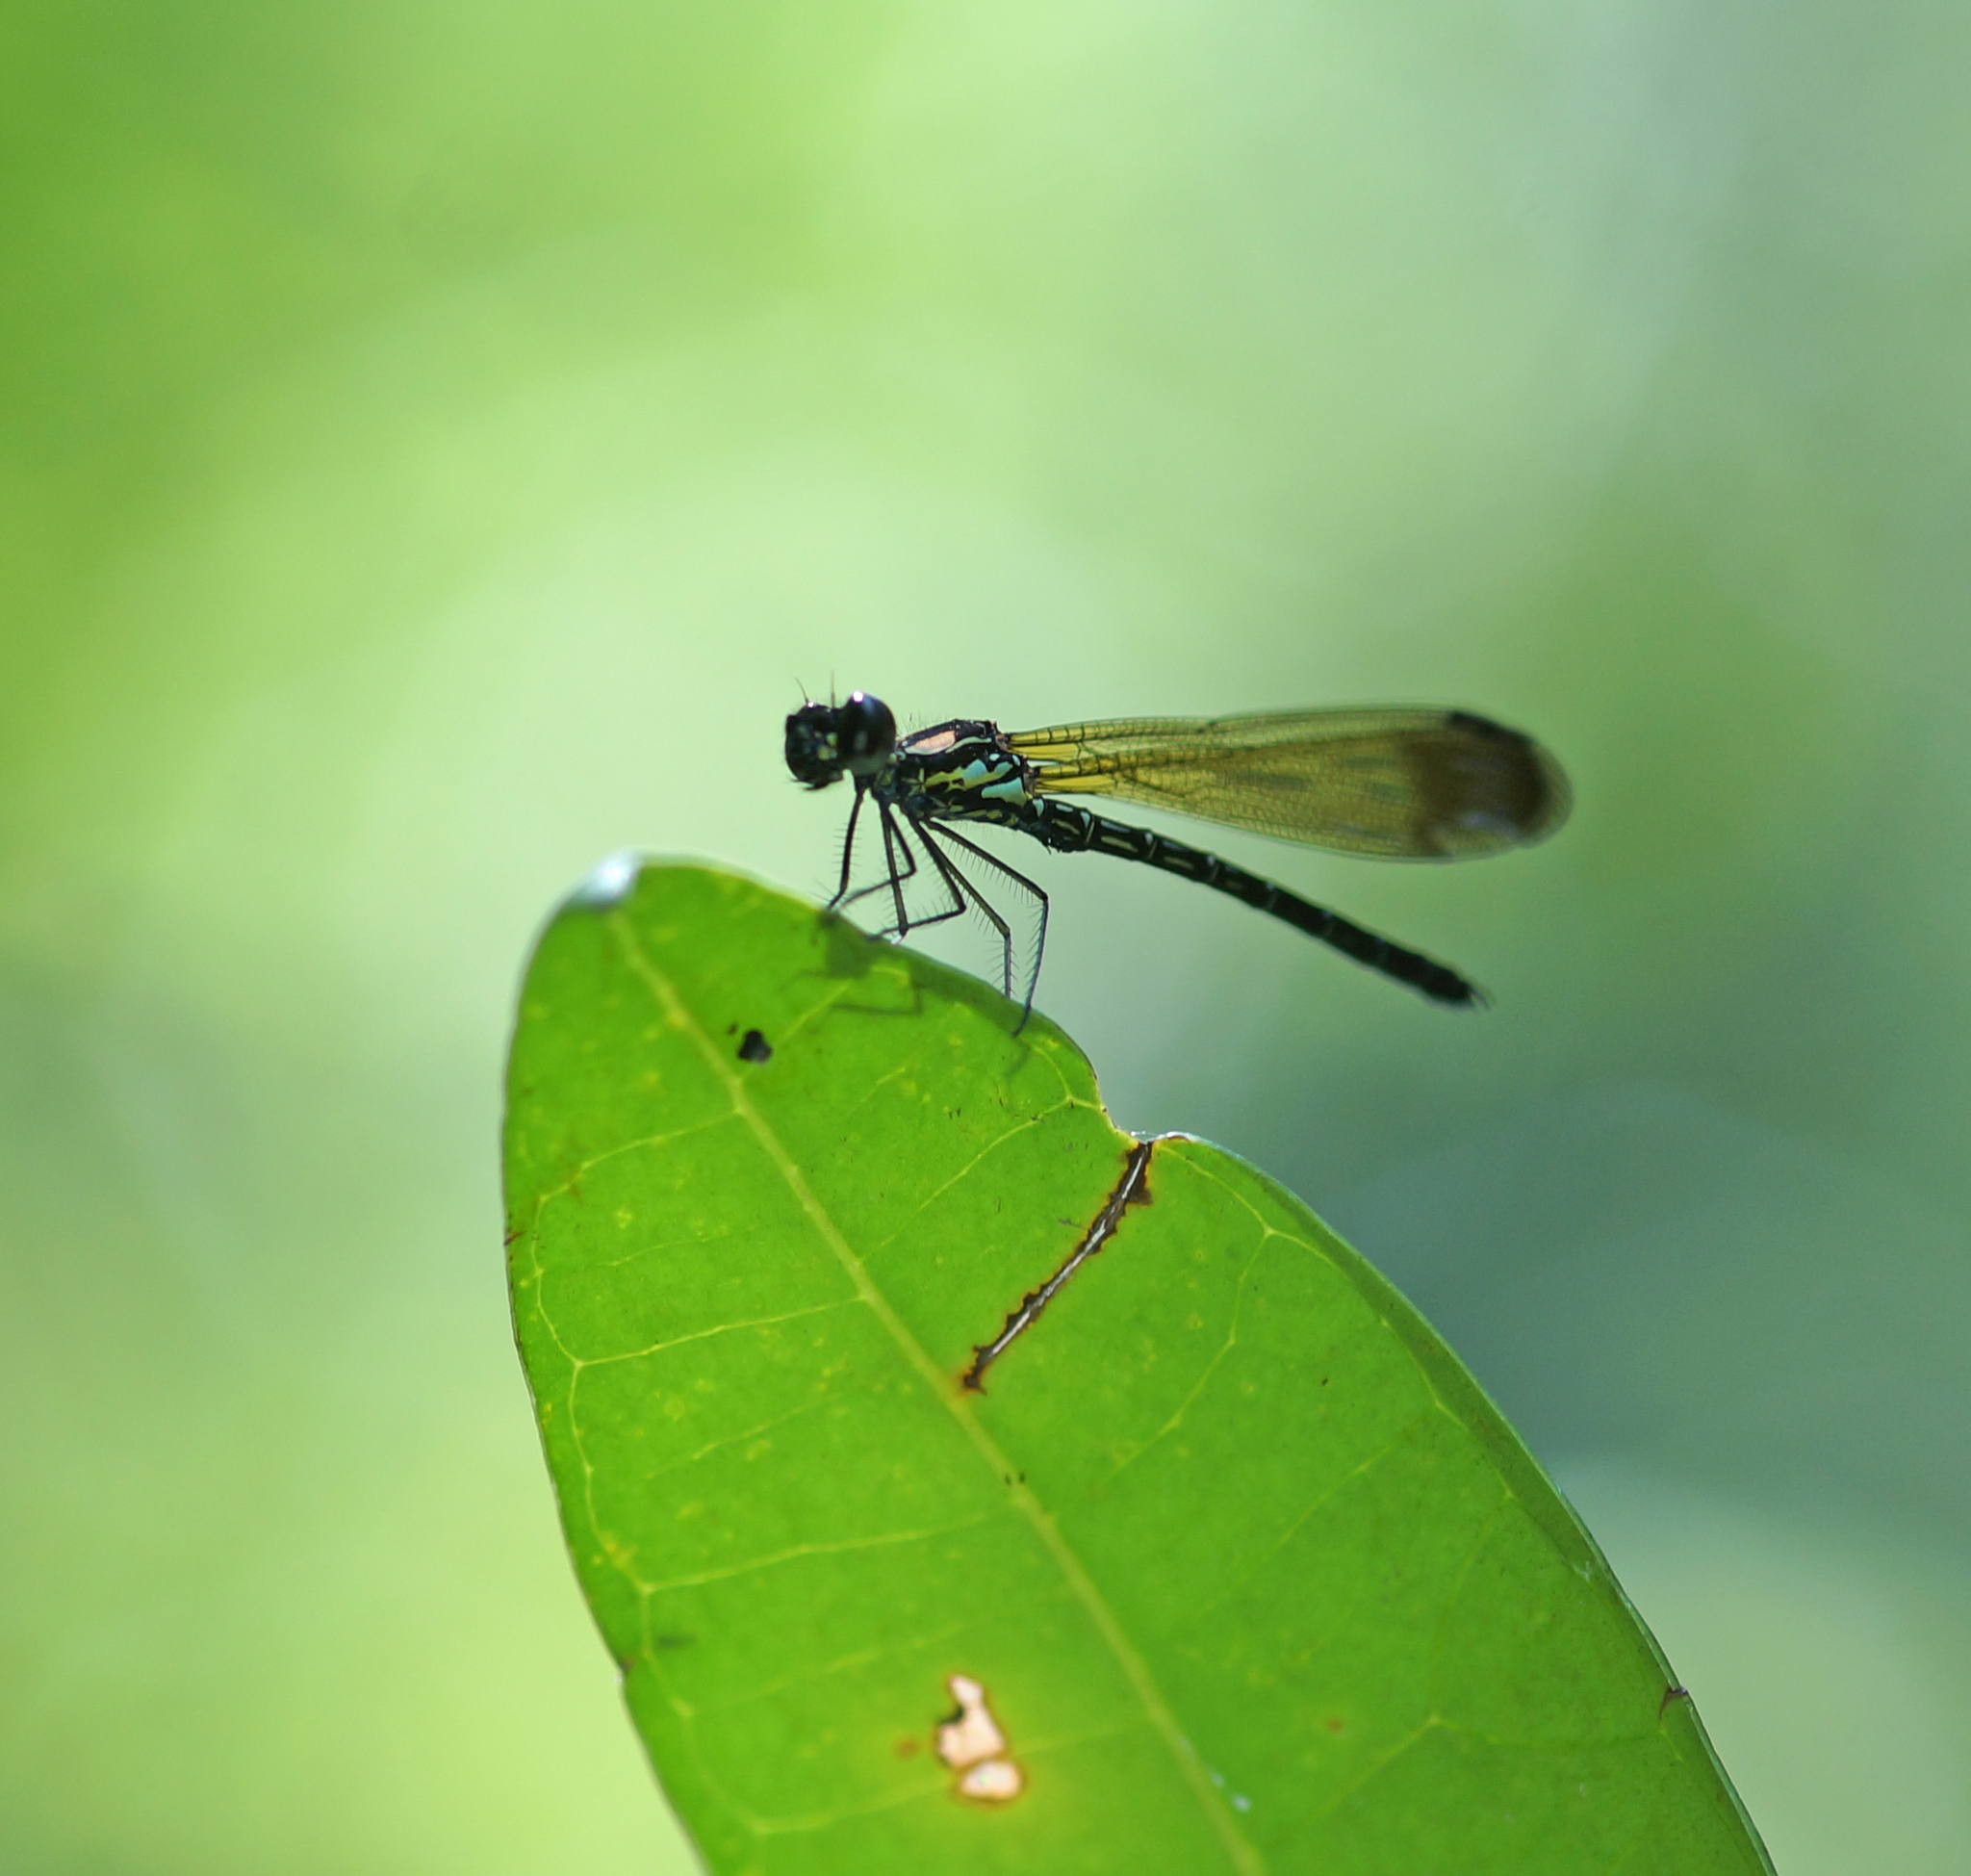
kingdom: Animalia
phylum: Arthropoda
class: Insecta
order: Odonata
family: Chlorocyphidae
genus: Heliocypha
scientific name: Heliocypha biforata
